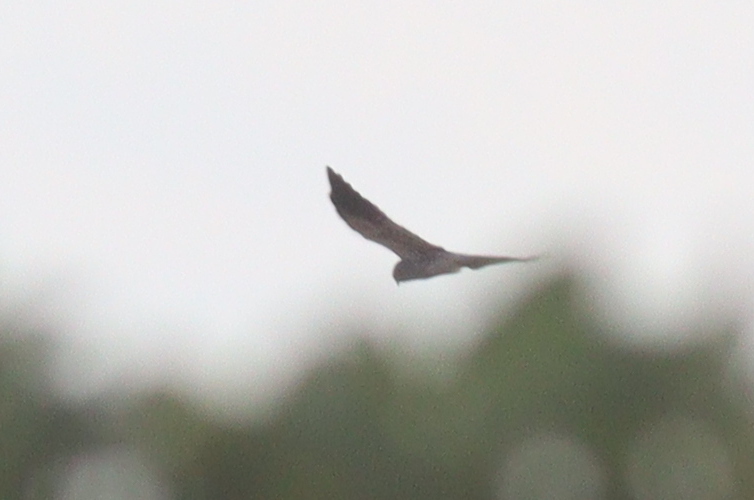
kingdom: Animalia
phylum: Chordata
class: Aves
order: Accipitriformes
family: Accipitridae
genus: Circus
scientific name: Circus pygargus
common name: Montagu's harrier
